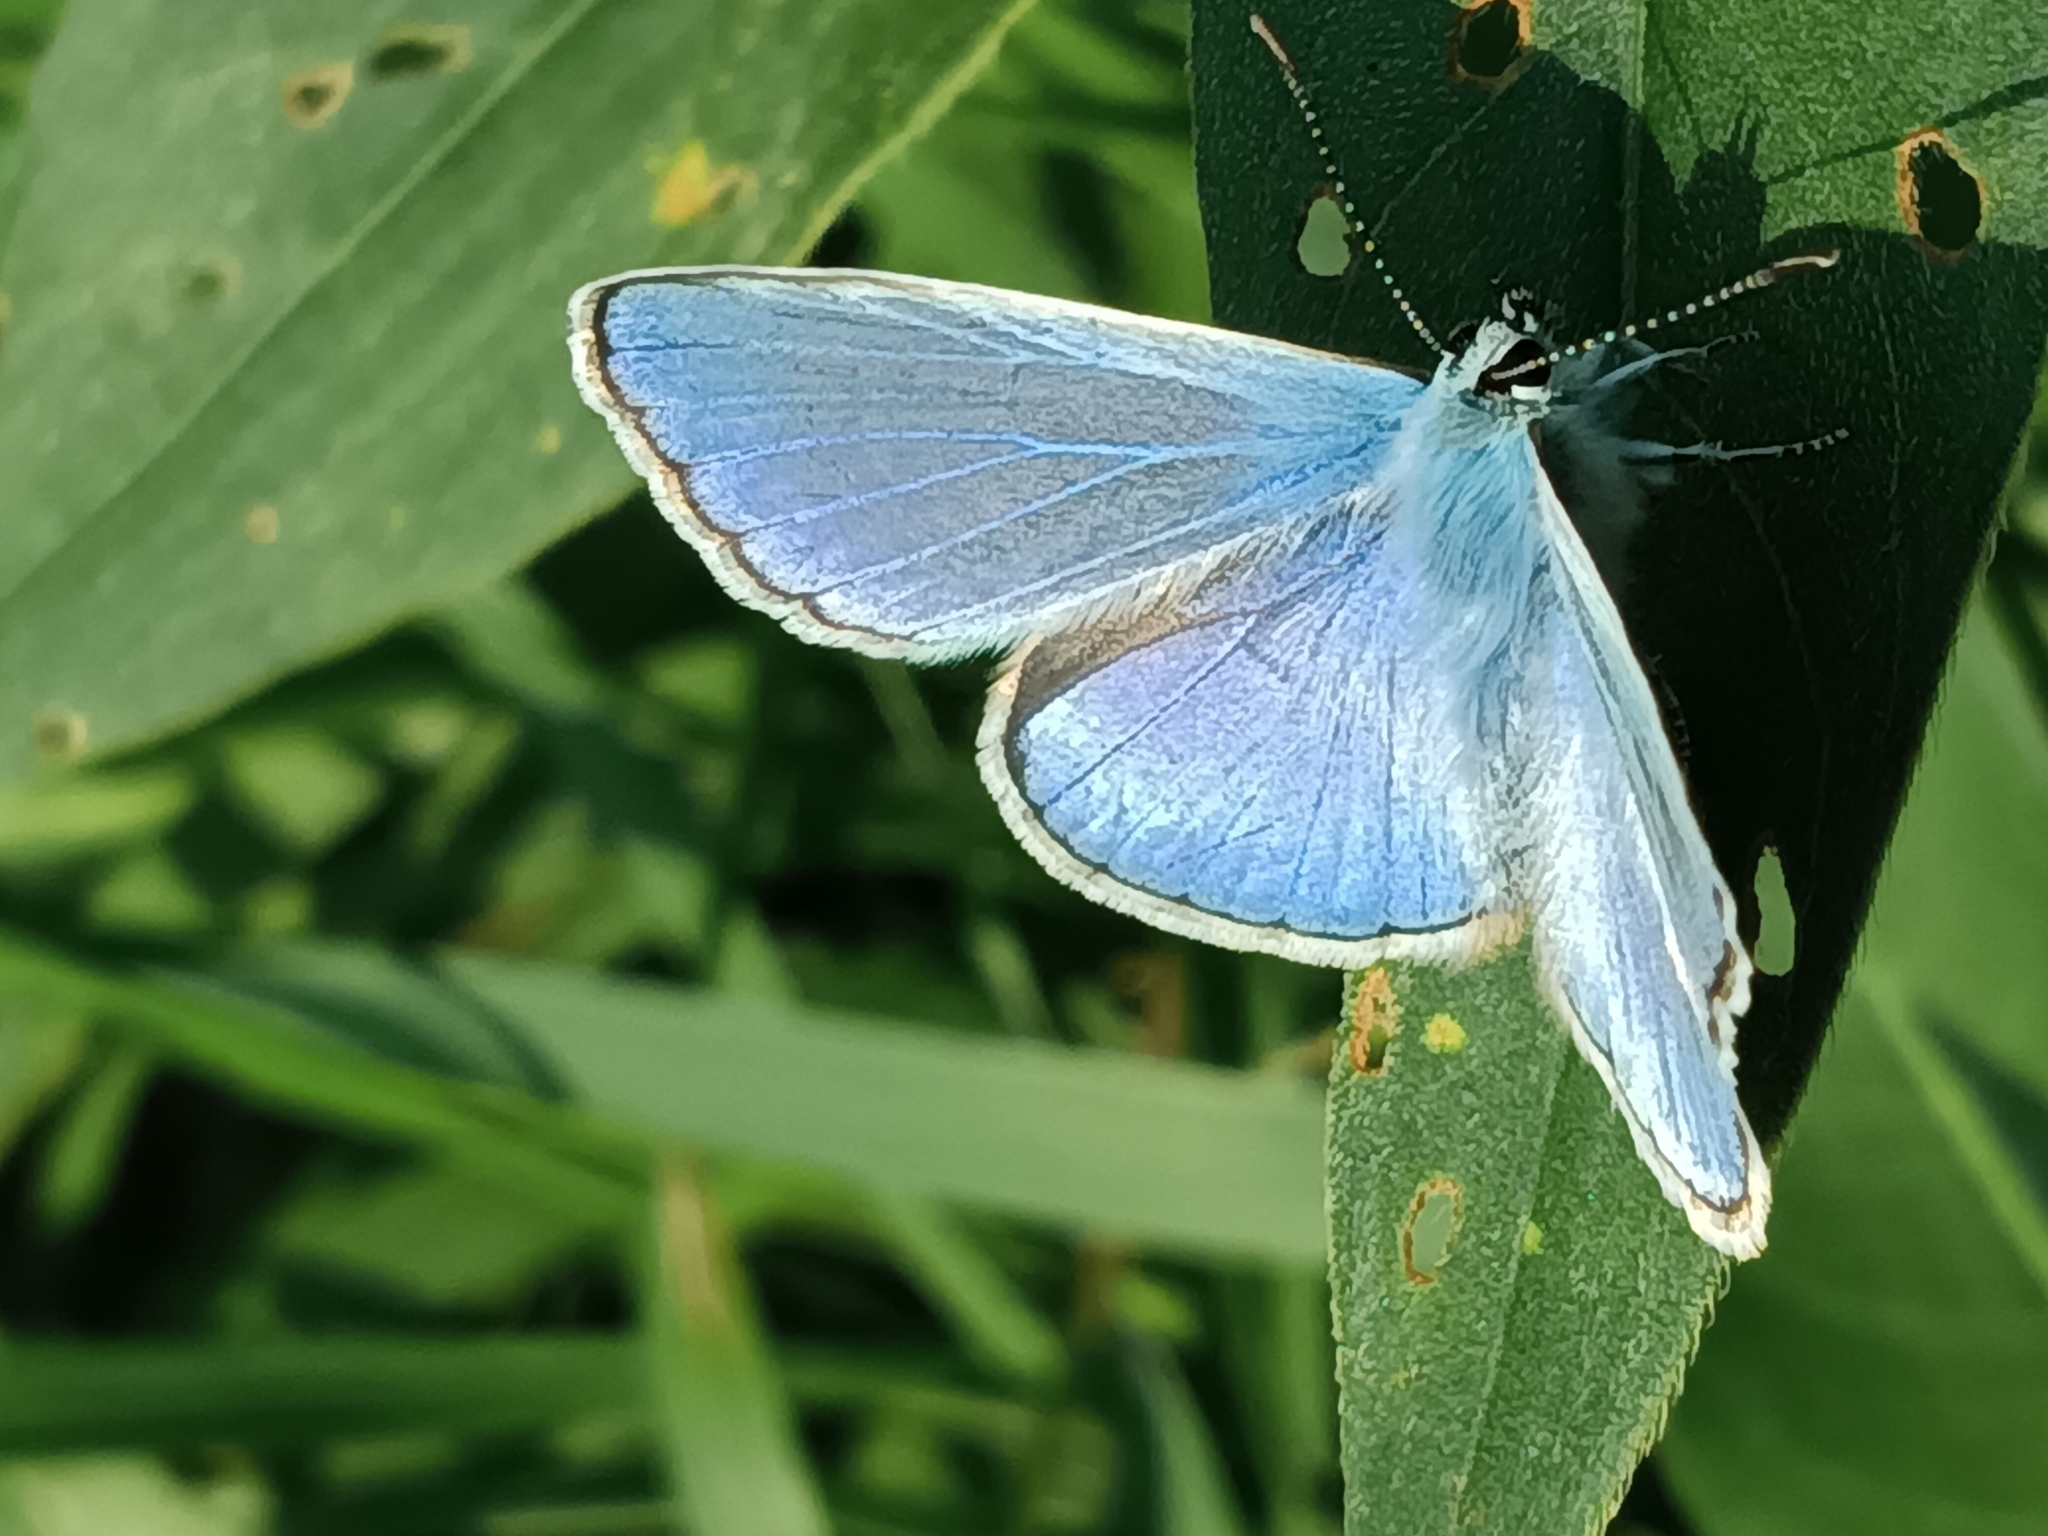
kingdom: Animalia
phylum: Arthropoda
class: Insecta
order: Lepidoptera
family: Lycaenidae
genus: Polyommatus
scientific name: Polyommatus icarus
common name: Common blue
